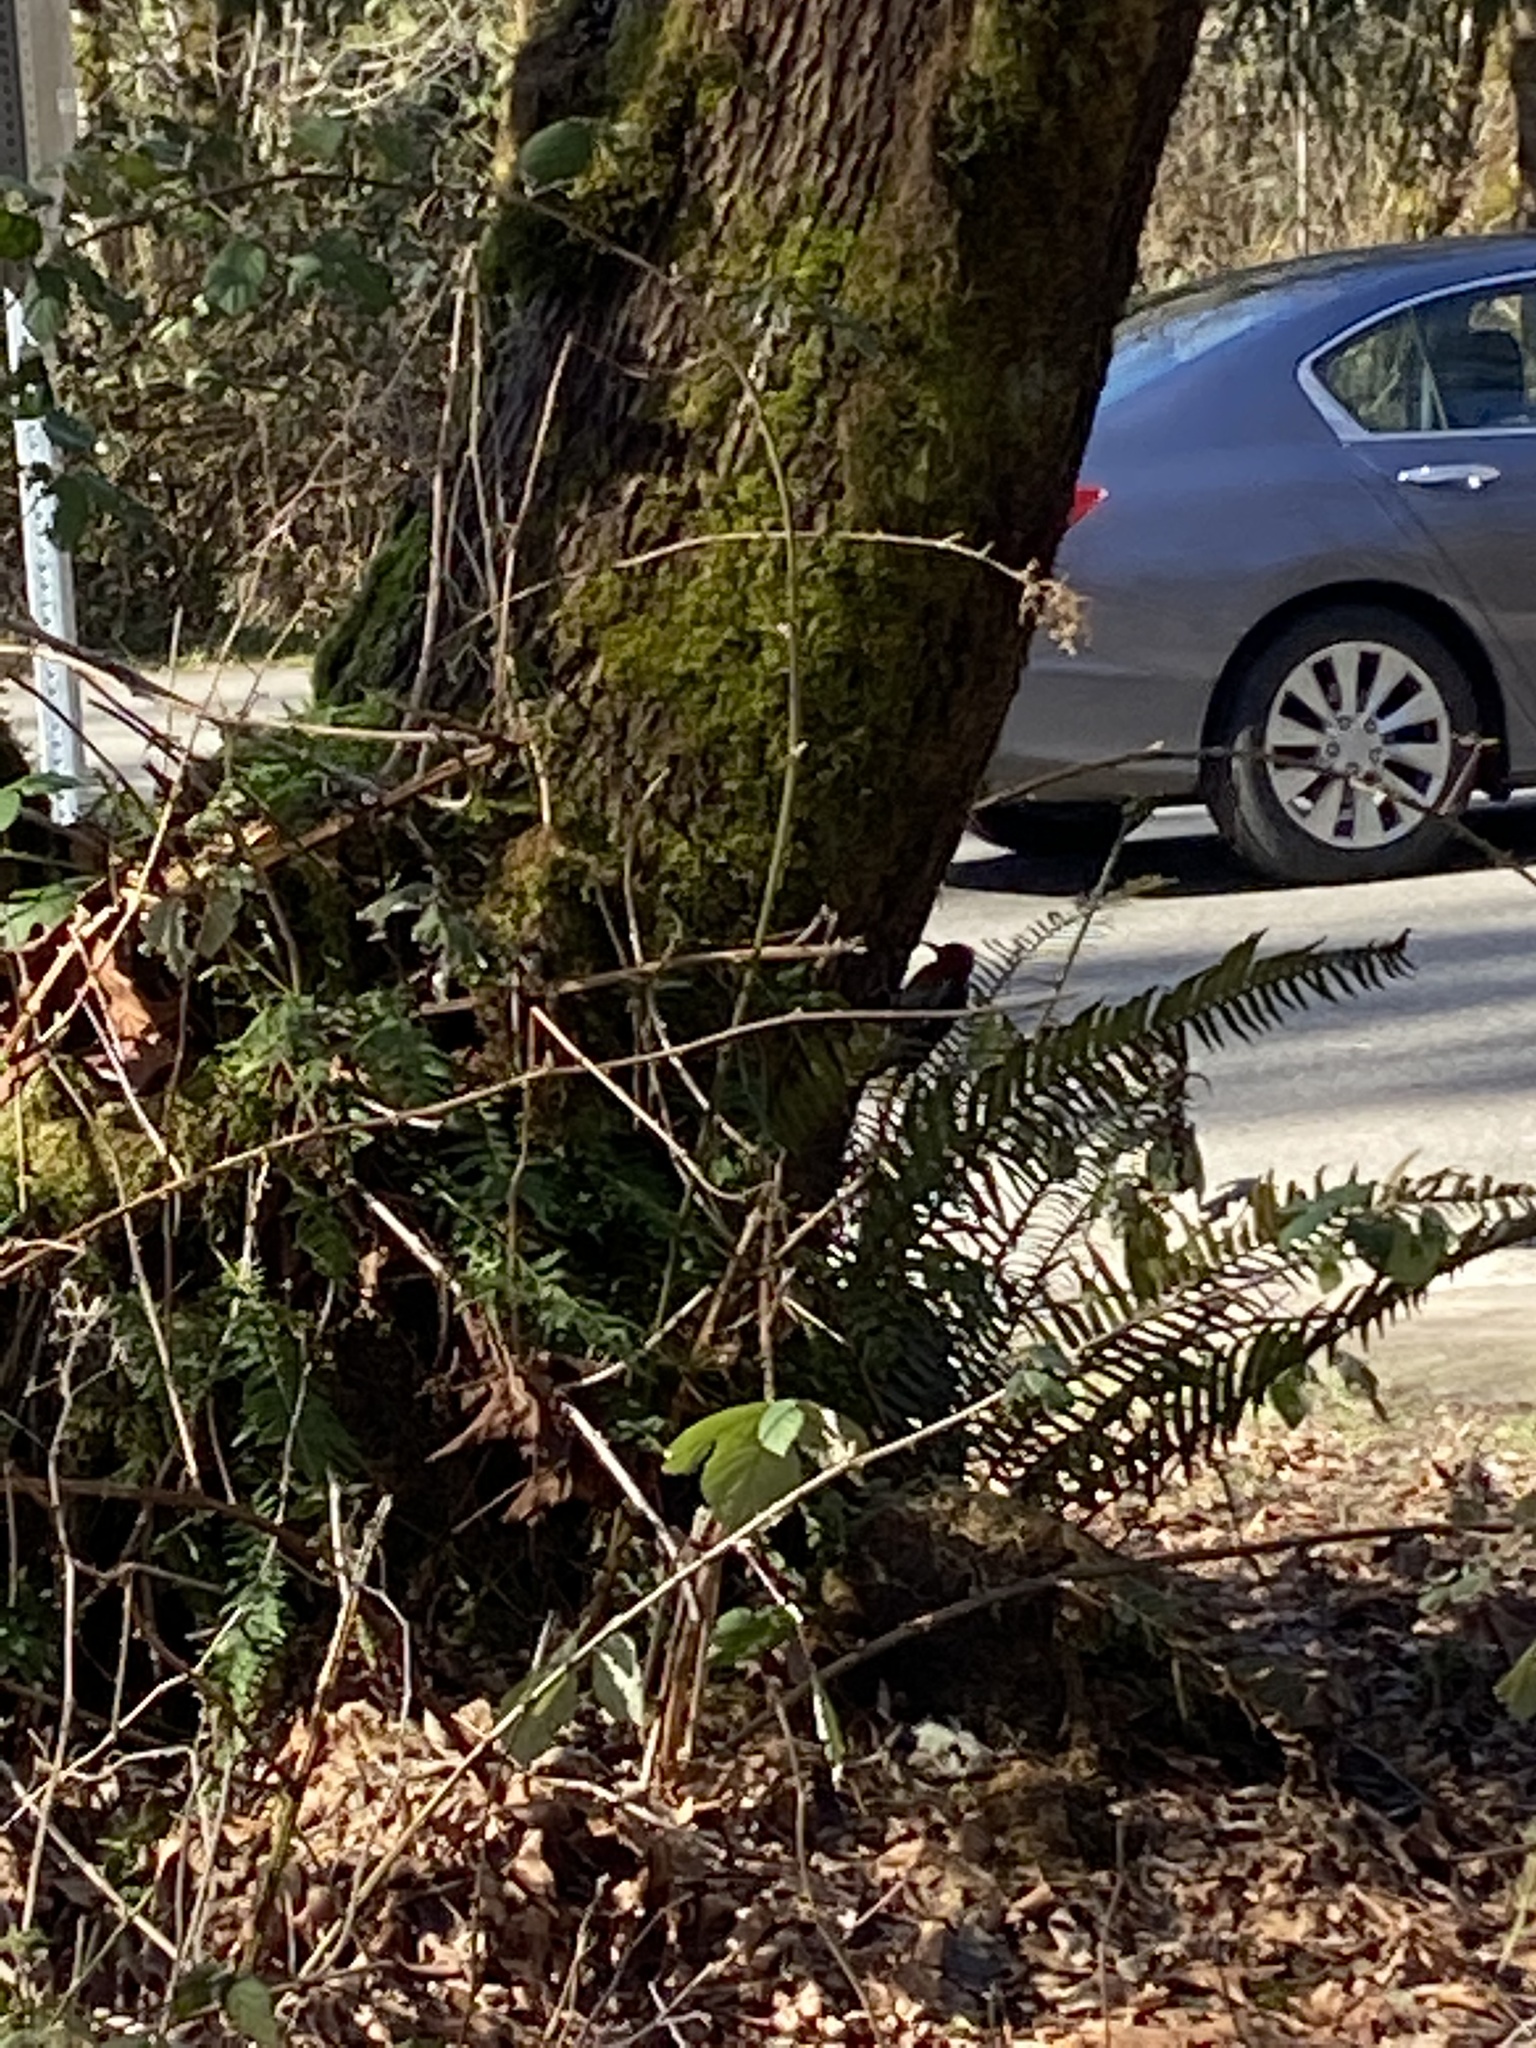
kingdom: Animalia
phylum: Chordata
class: Aves
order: Piciformes
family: Picidae
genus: Sphyrapicus
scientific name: Sphyrapicus ruber
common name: Red-breasted sapsucker
